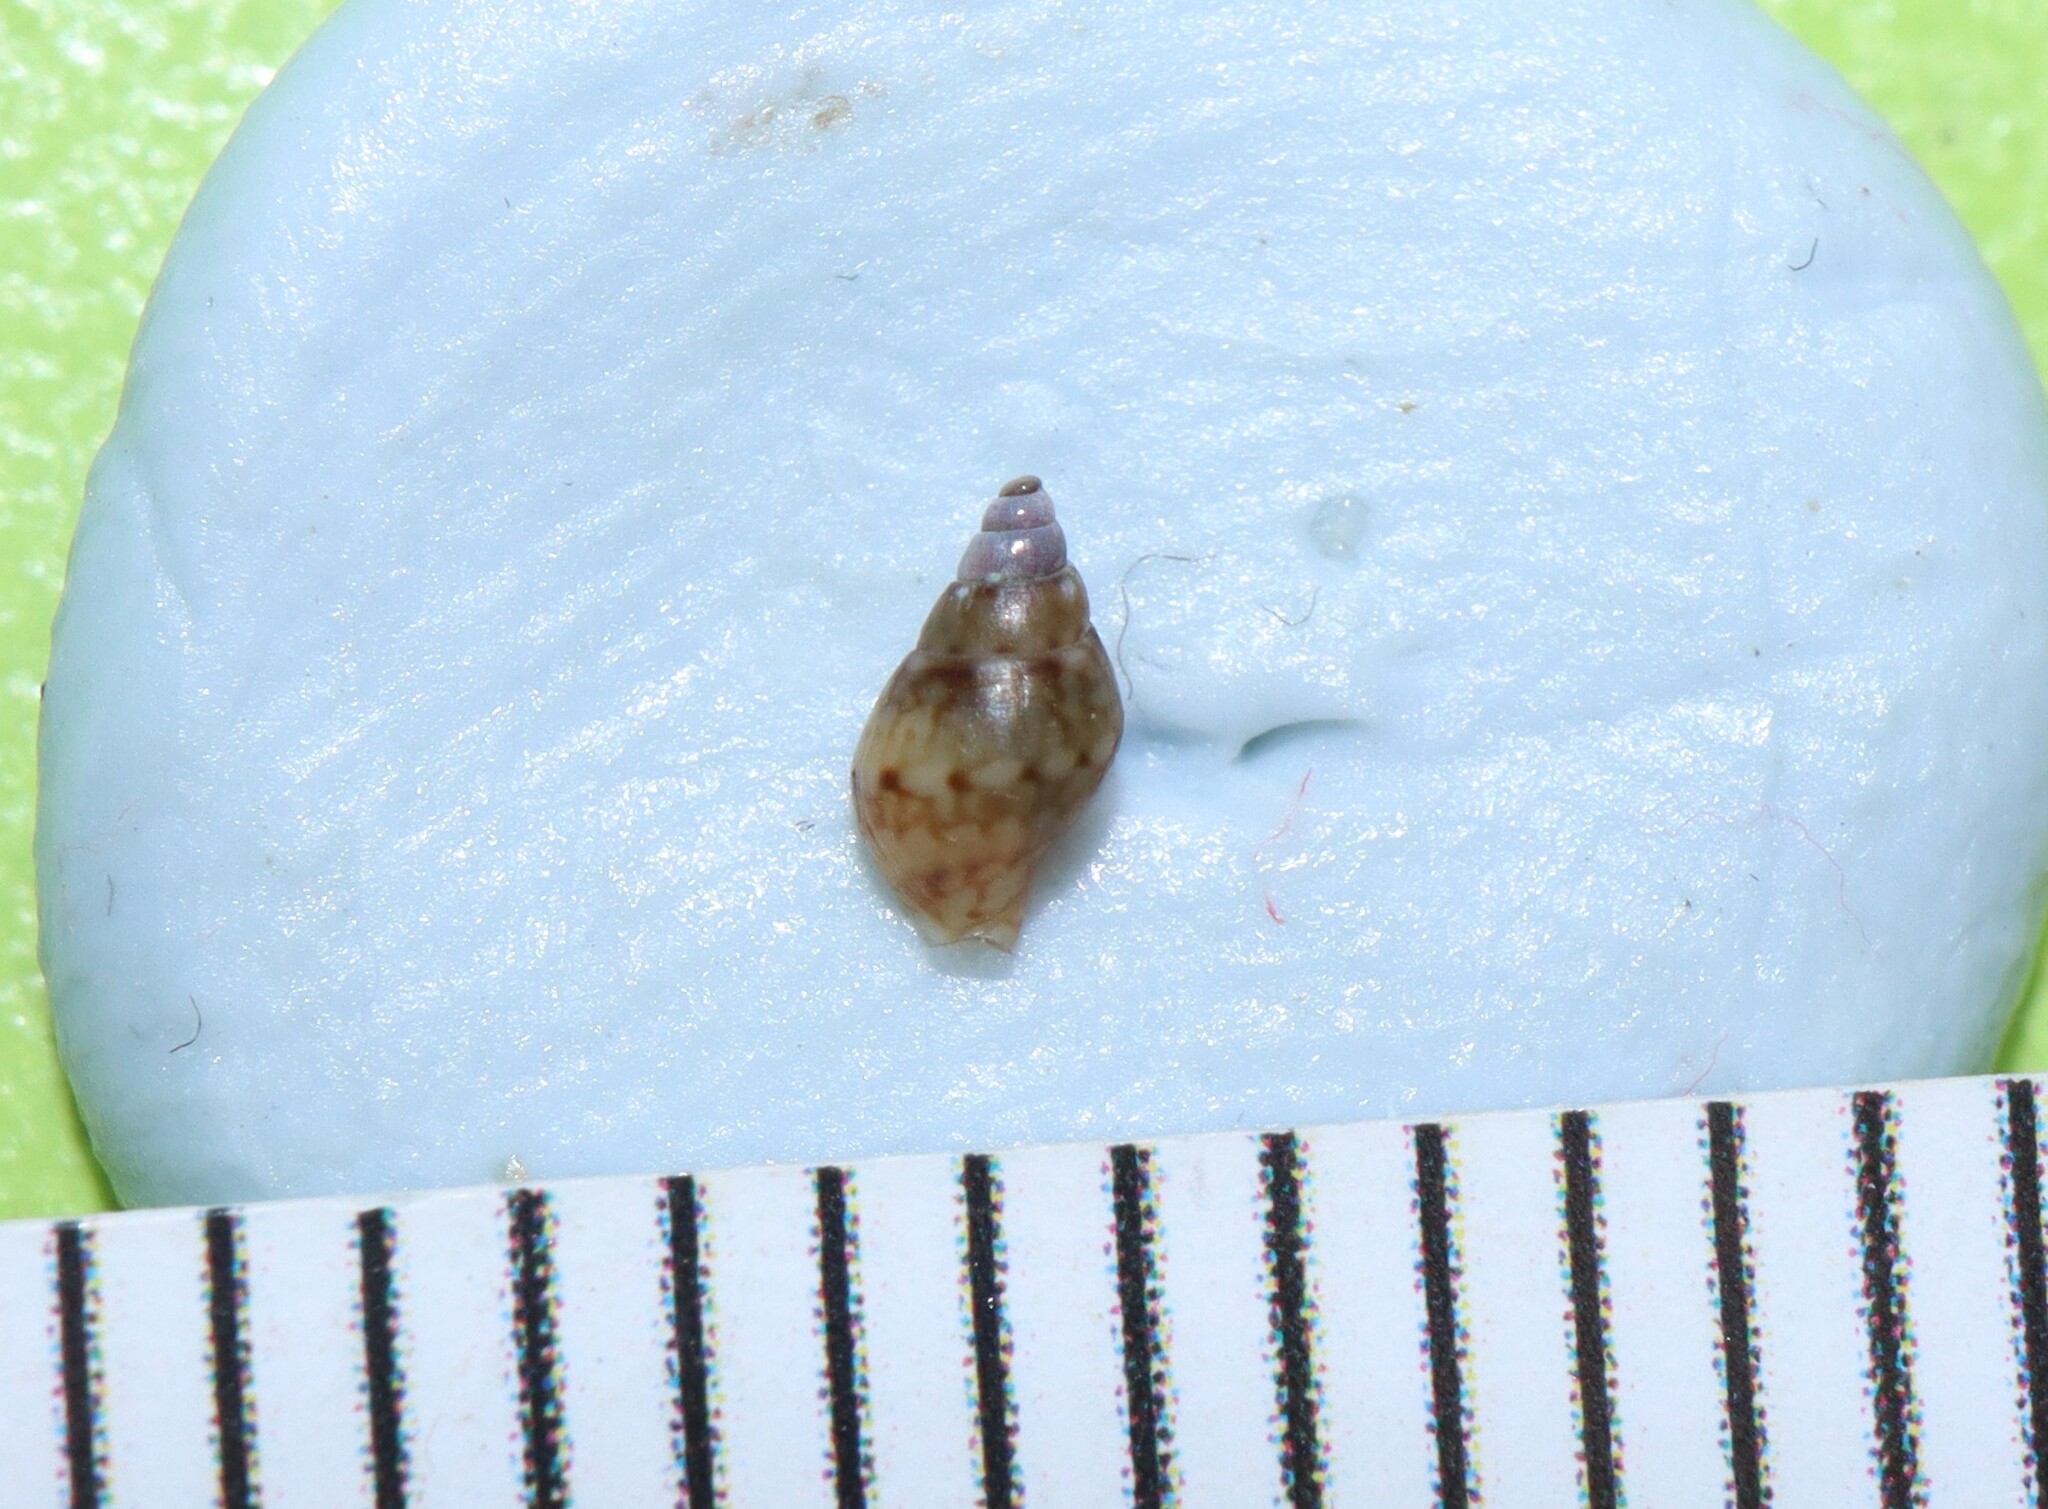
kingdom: Animalia
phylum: Mollusca
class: Gastropoda
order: Neogastropoda
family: Columbellidae
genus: Pseudamycla
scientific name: Pseudamycla dermestoidea
